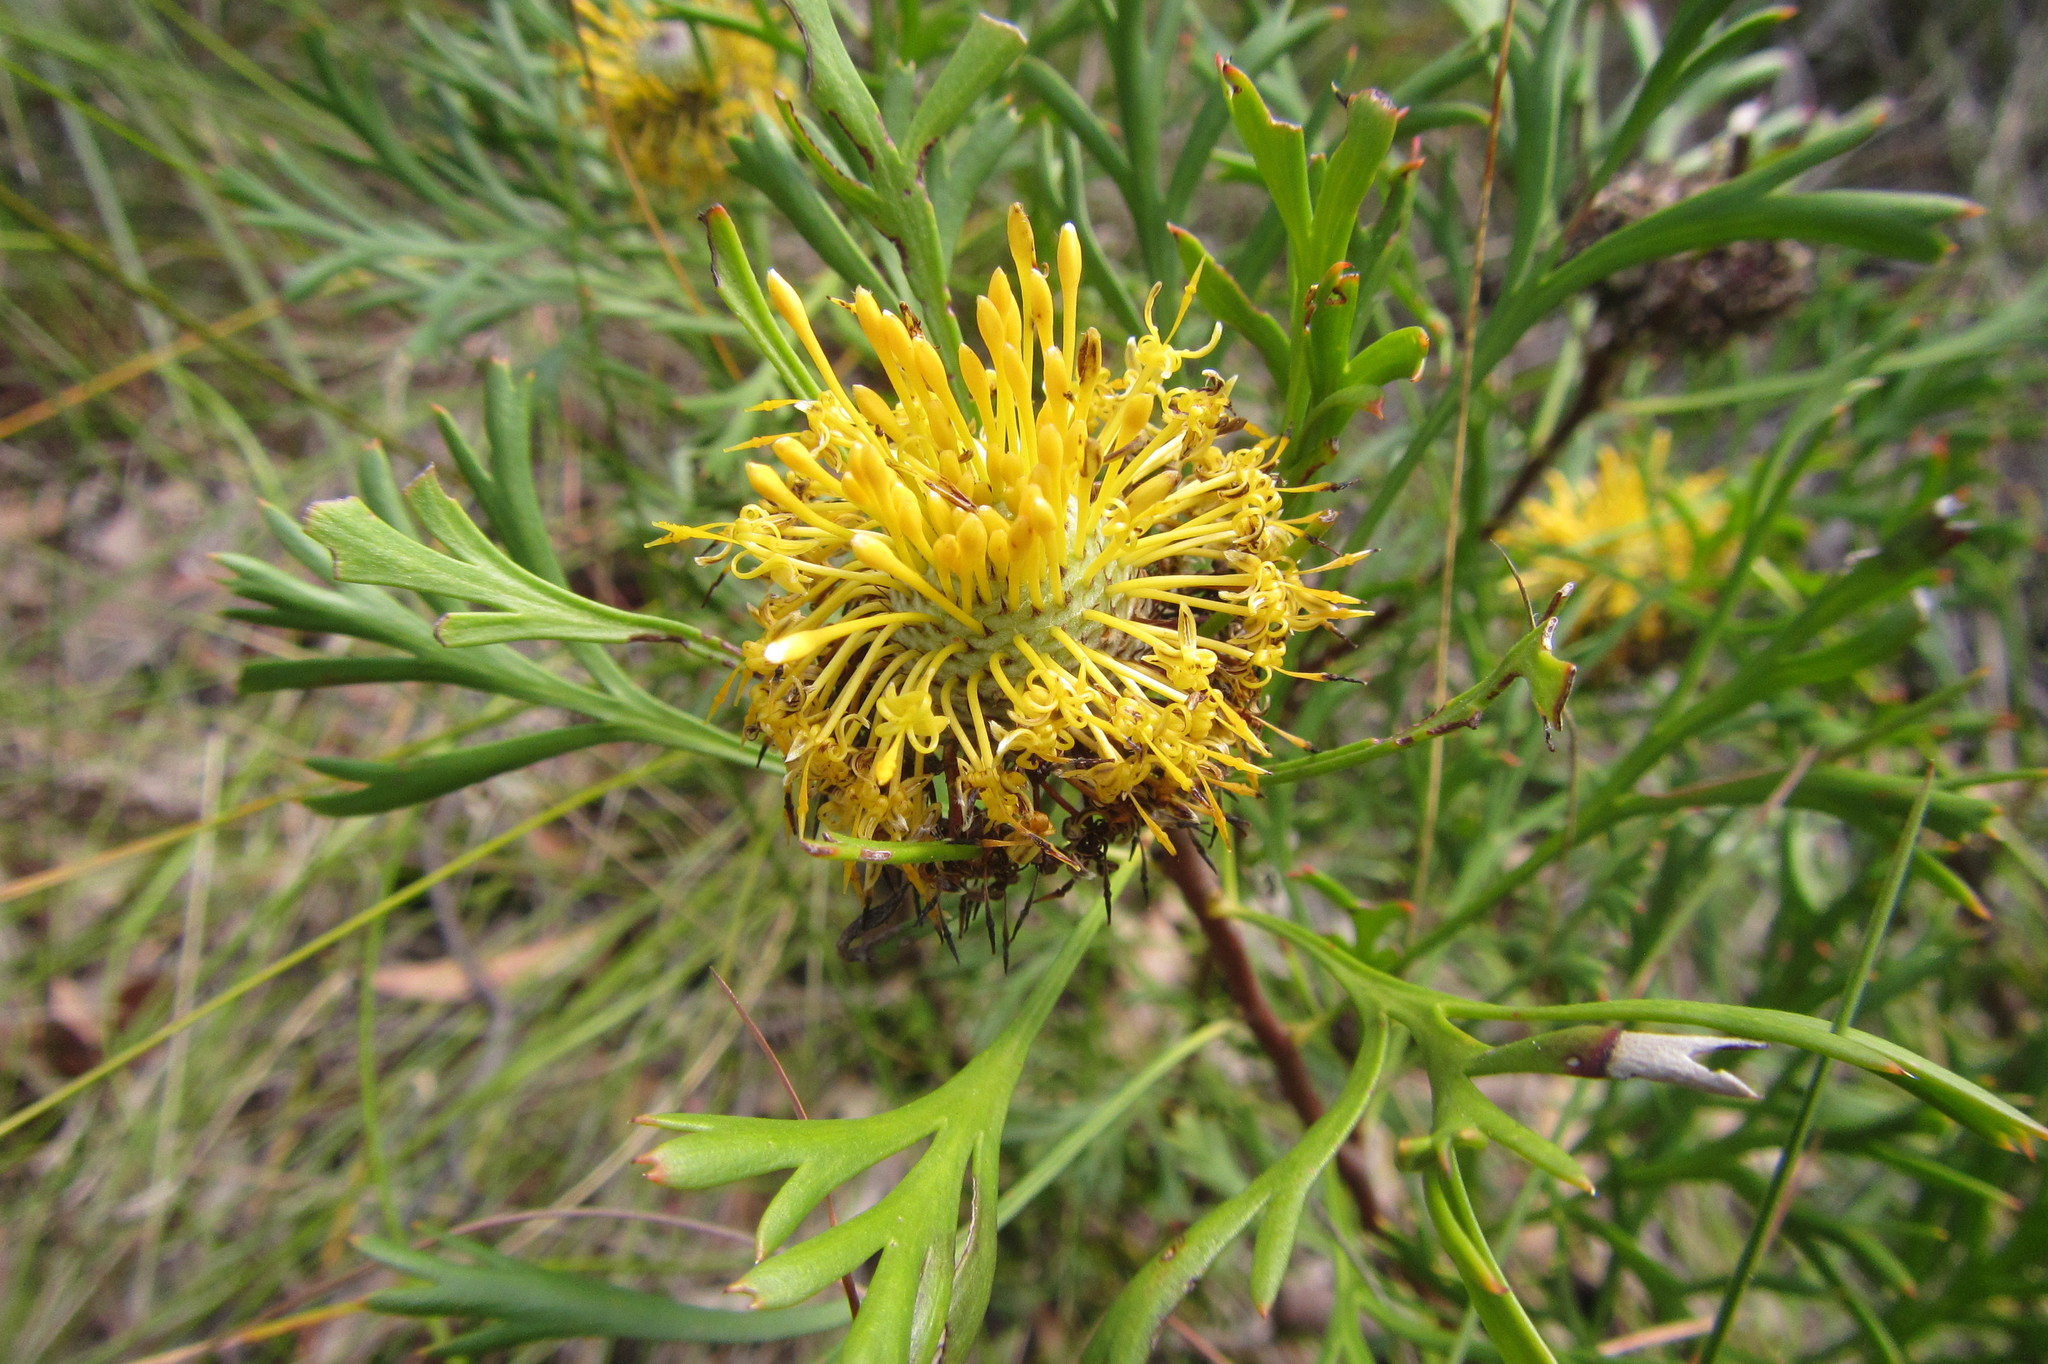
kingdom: Plantae
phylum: Tracheophyta
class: Magnoliopsida
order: Proteales
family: Proteaceae
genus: Isopogon
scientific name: Isopogon anemonifolius
